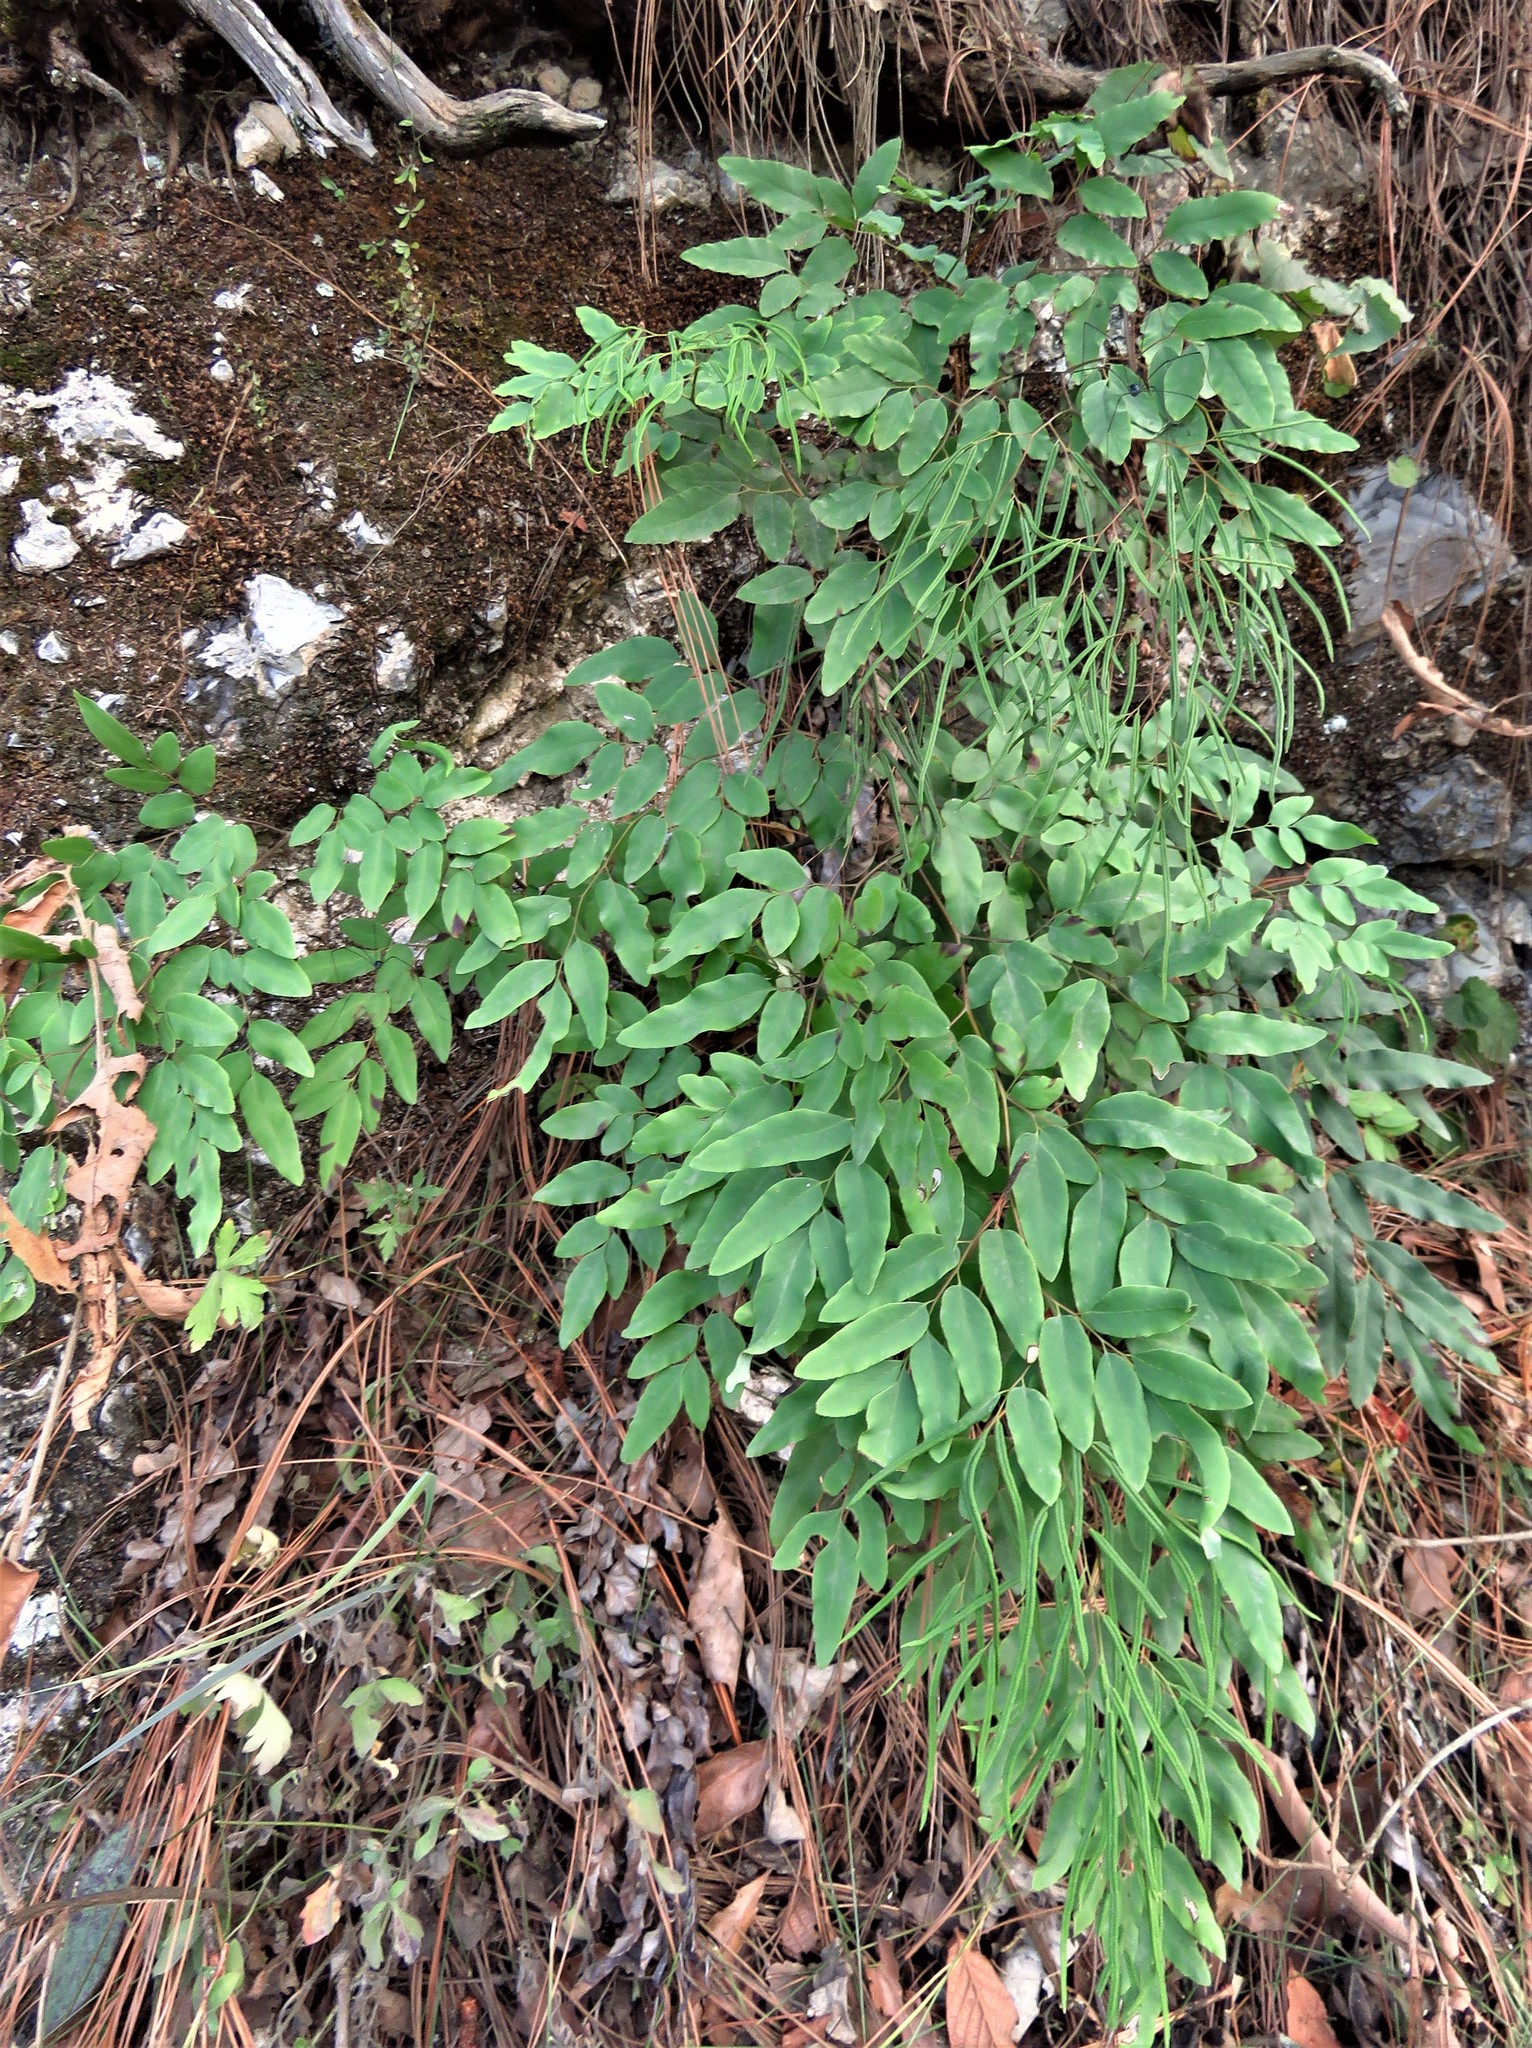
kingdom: Plantae
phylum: Tracheophyta
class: Polypodiopsida
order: Polypodiales
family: Pteridaceae
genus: Llavea
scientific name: Llavea cordifolia
